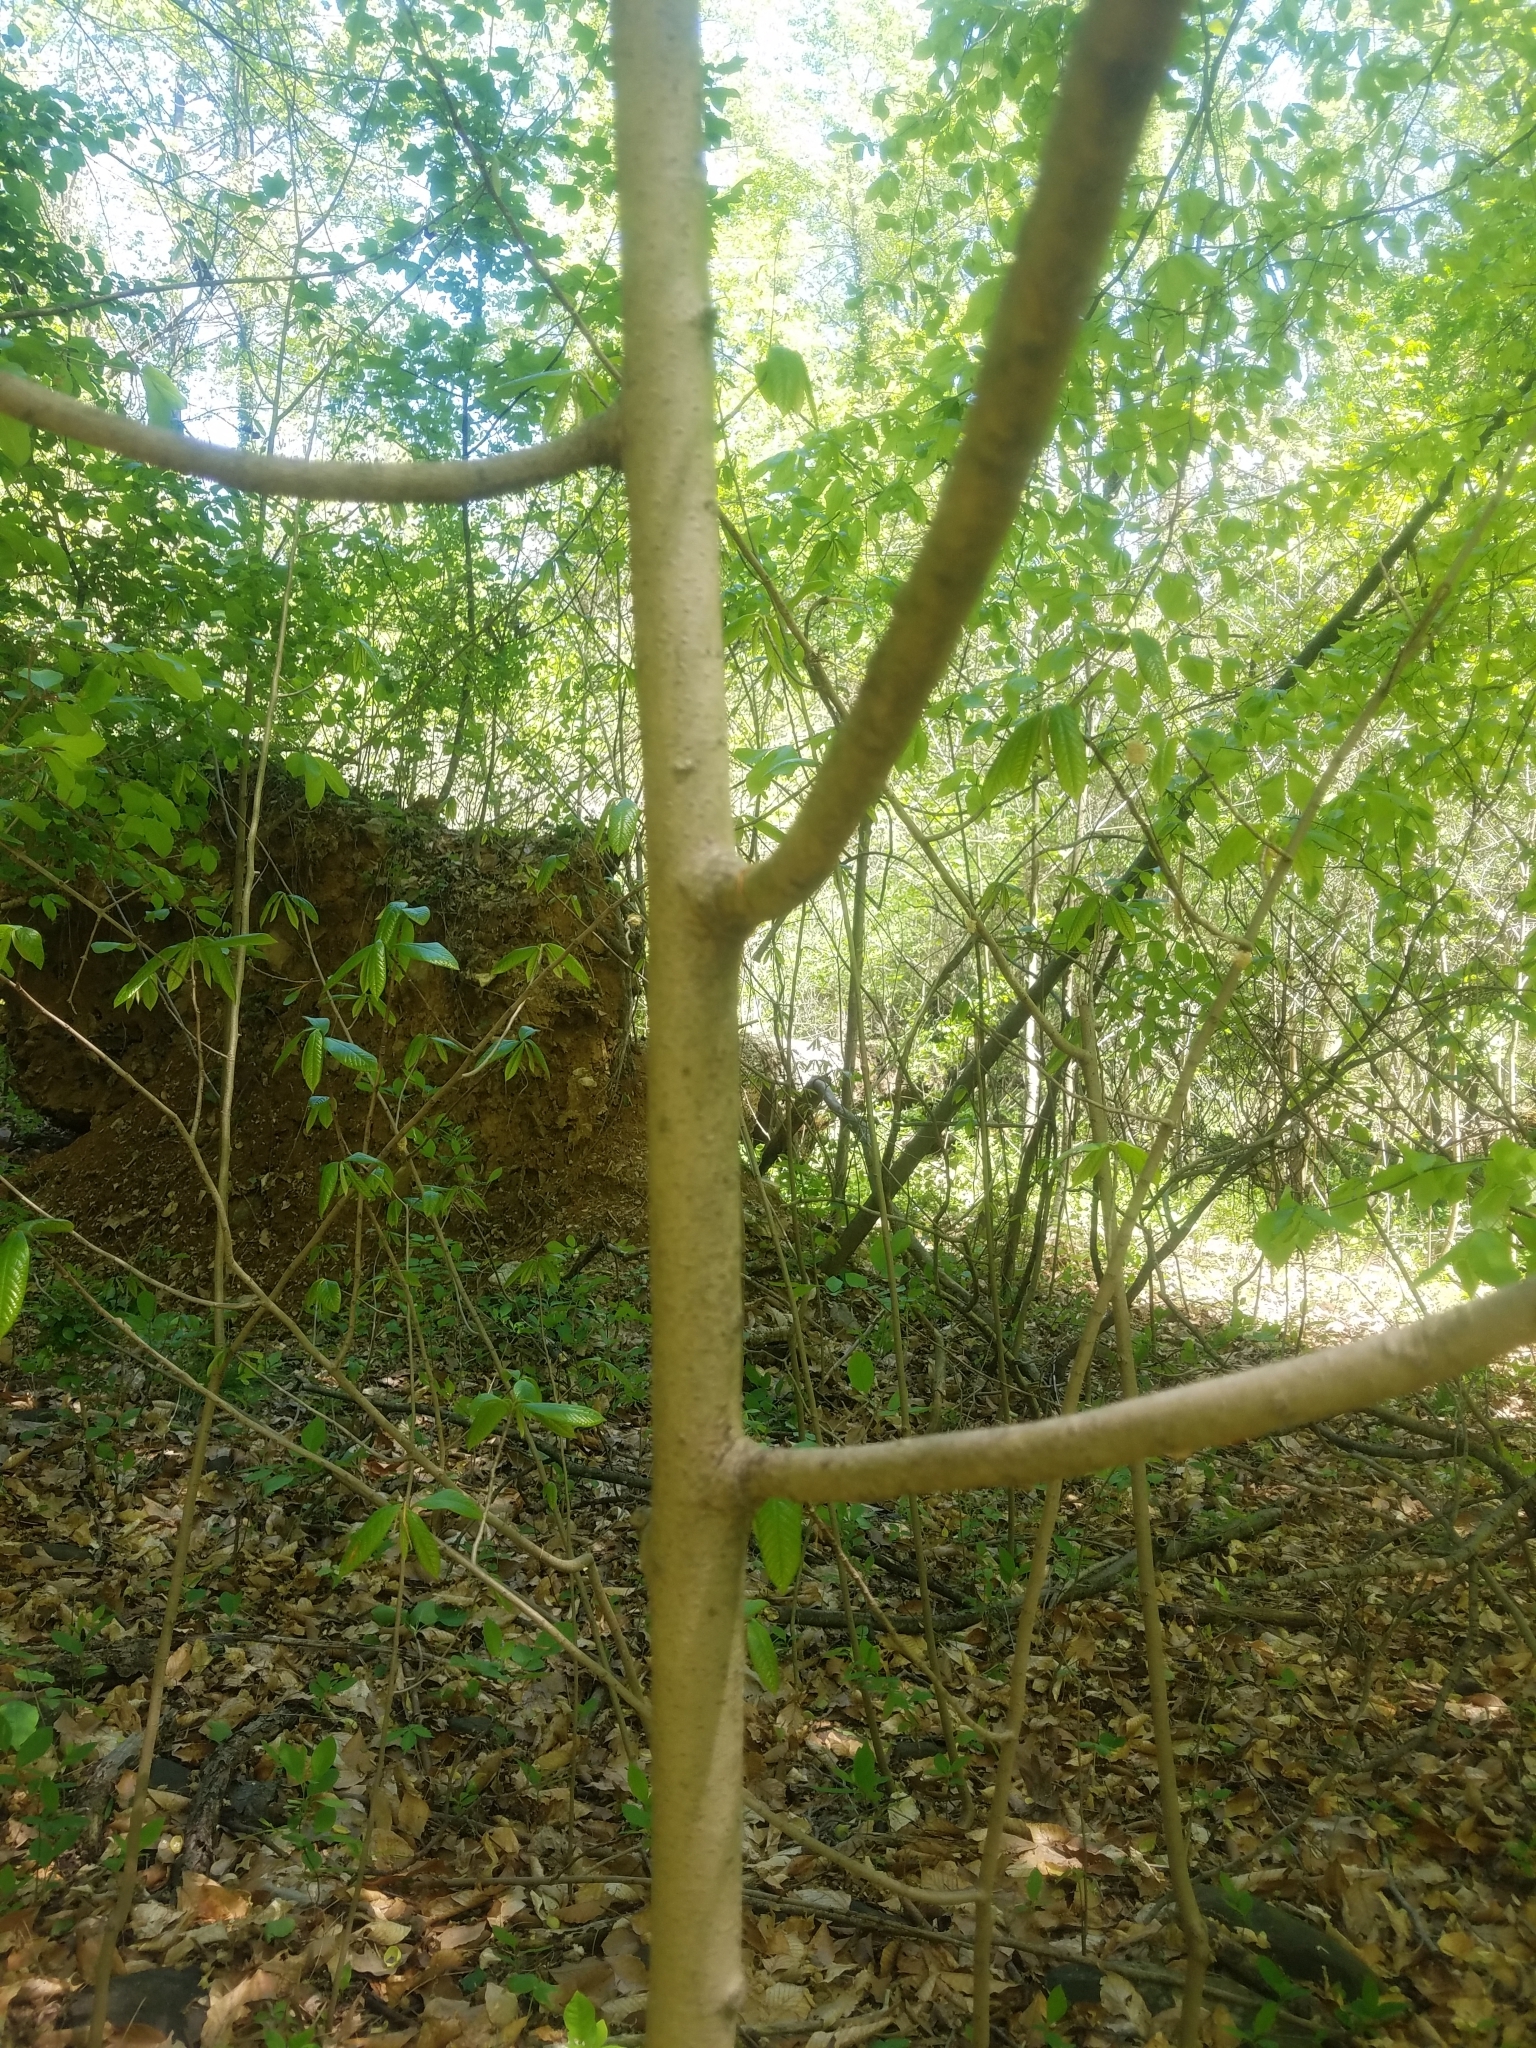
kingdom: Plantae
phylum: Tracheophyta
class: Magnoliopsida
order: Magnoliales
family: Annonaceae
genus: Asimina
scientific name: Asimina triloba
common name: Dog-banana
